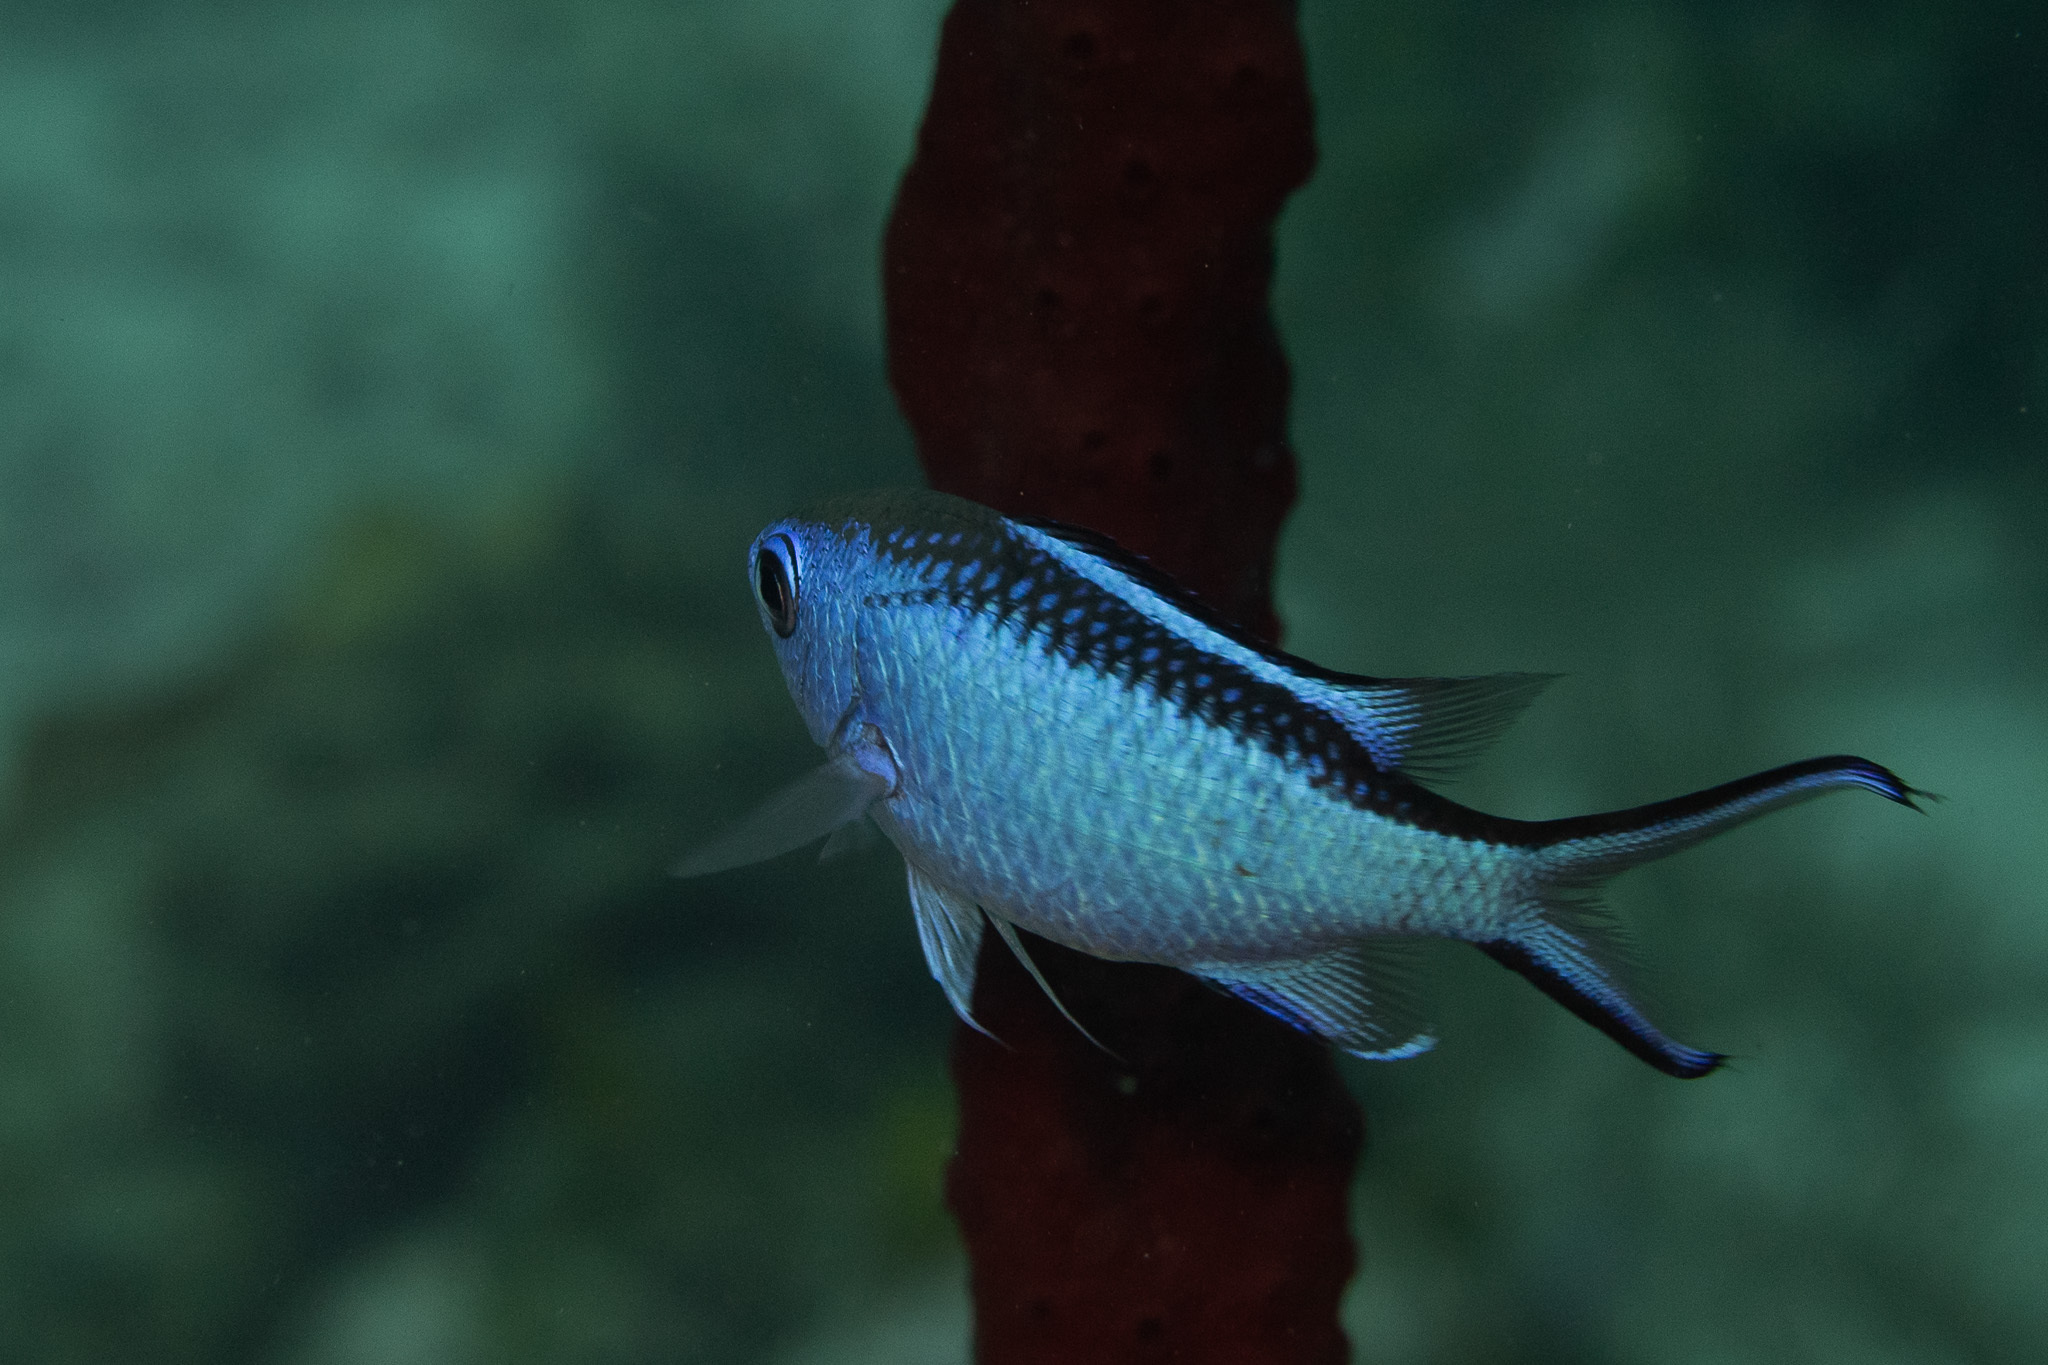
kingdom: Animalia
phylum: Chordata
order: Perciformes
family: Pomacentridae
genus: Chromis
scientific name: Chromis cyanea
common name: Blue chromis
